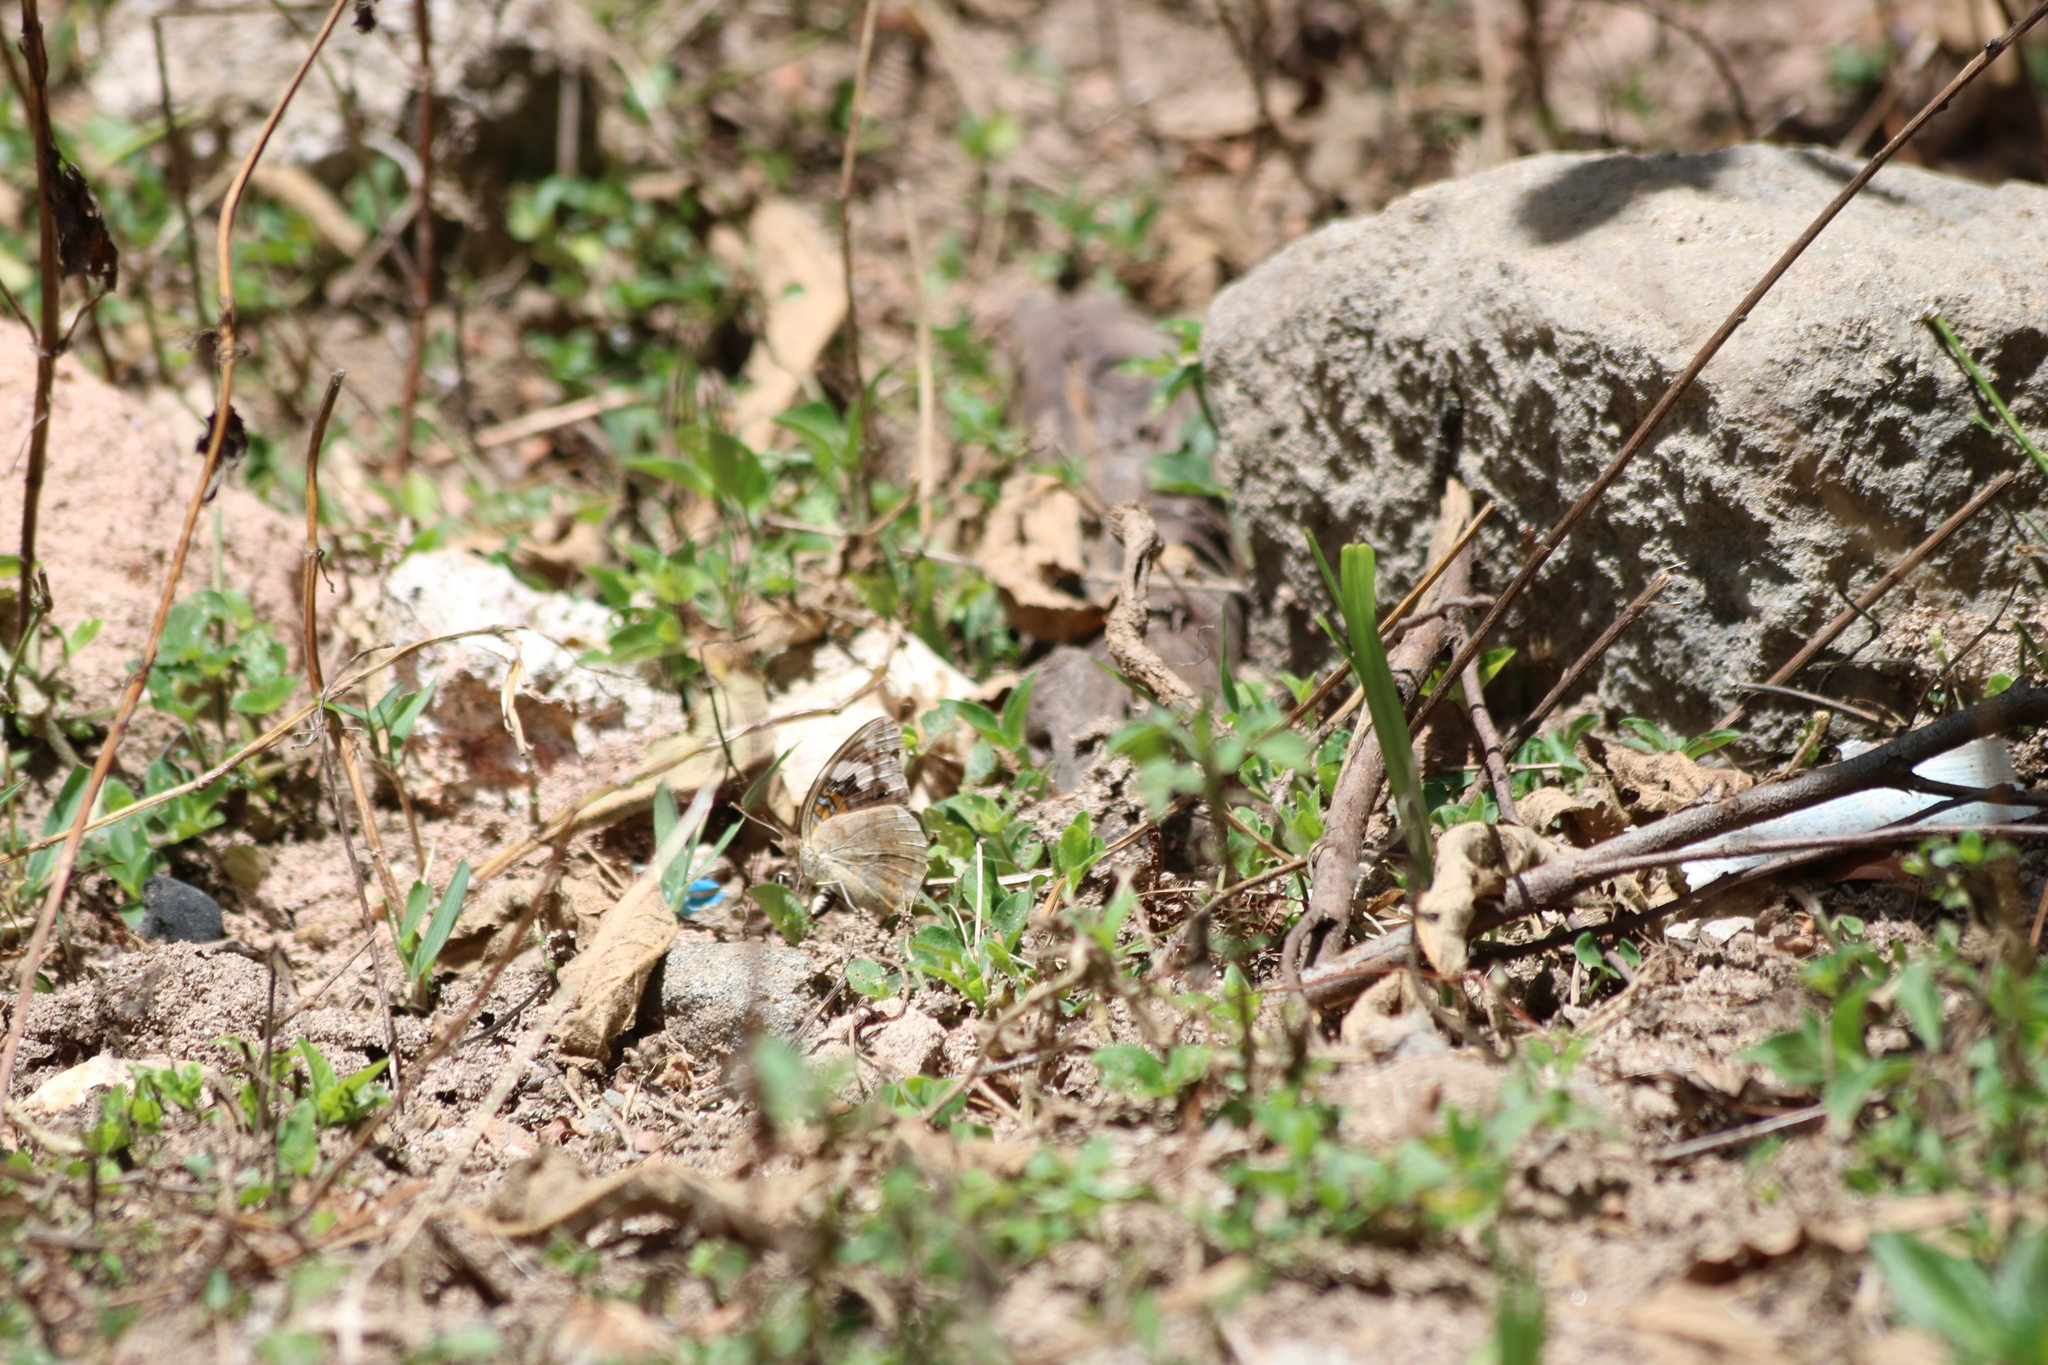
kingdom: Animalia
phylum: Arthropoda
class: Insecta
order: Lepidoptera
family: Nymphalidae
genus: Junonia
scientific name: Junonia oenone
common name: Dark blue pansy
